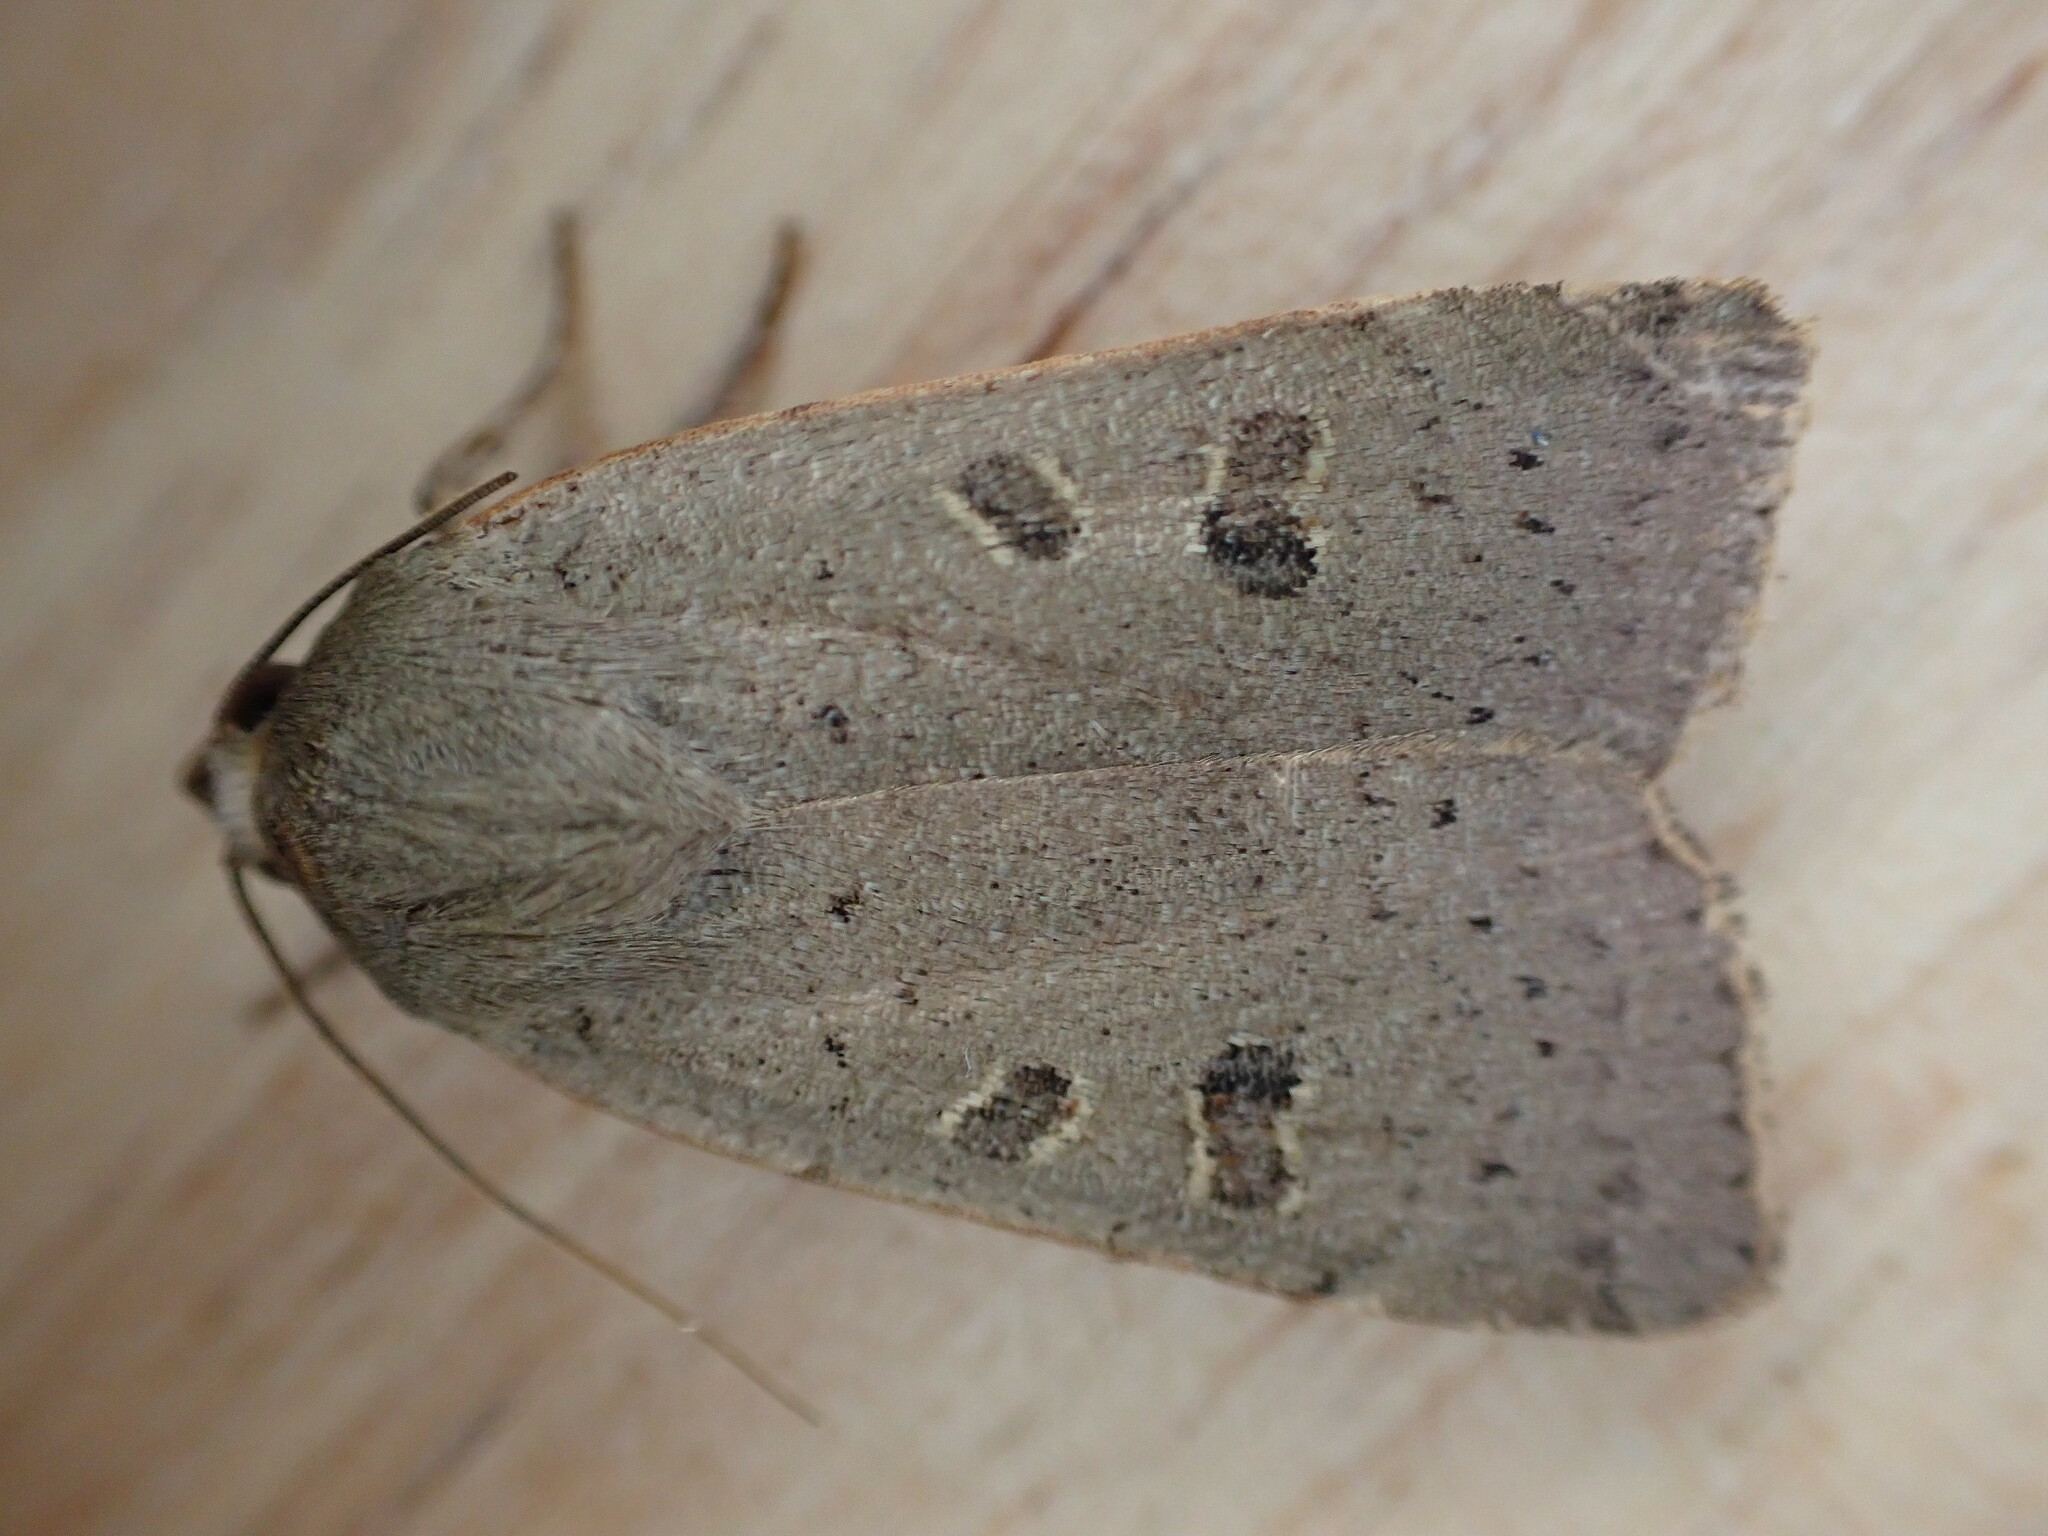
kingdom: Animalia
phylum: Arthropoda
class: Insecta
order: Lepidoptera
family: Noctuidae
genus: Noctua
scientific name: Noctua comes
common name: Lesser yellow underwing
